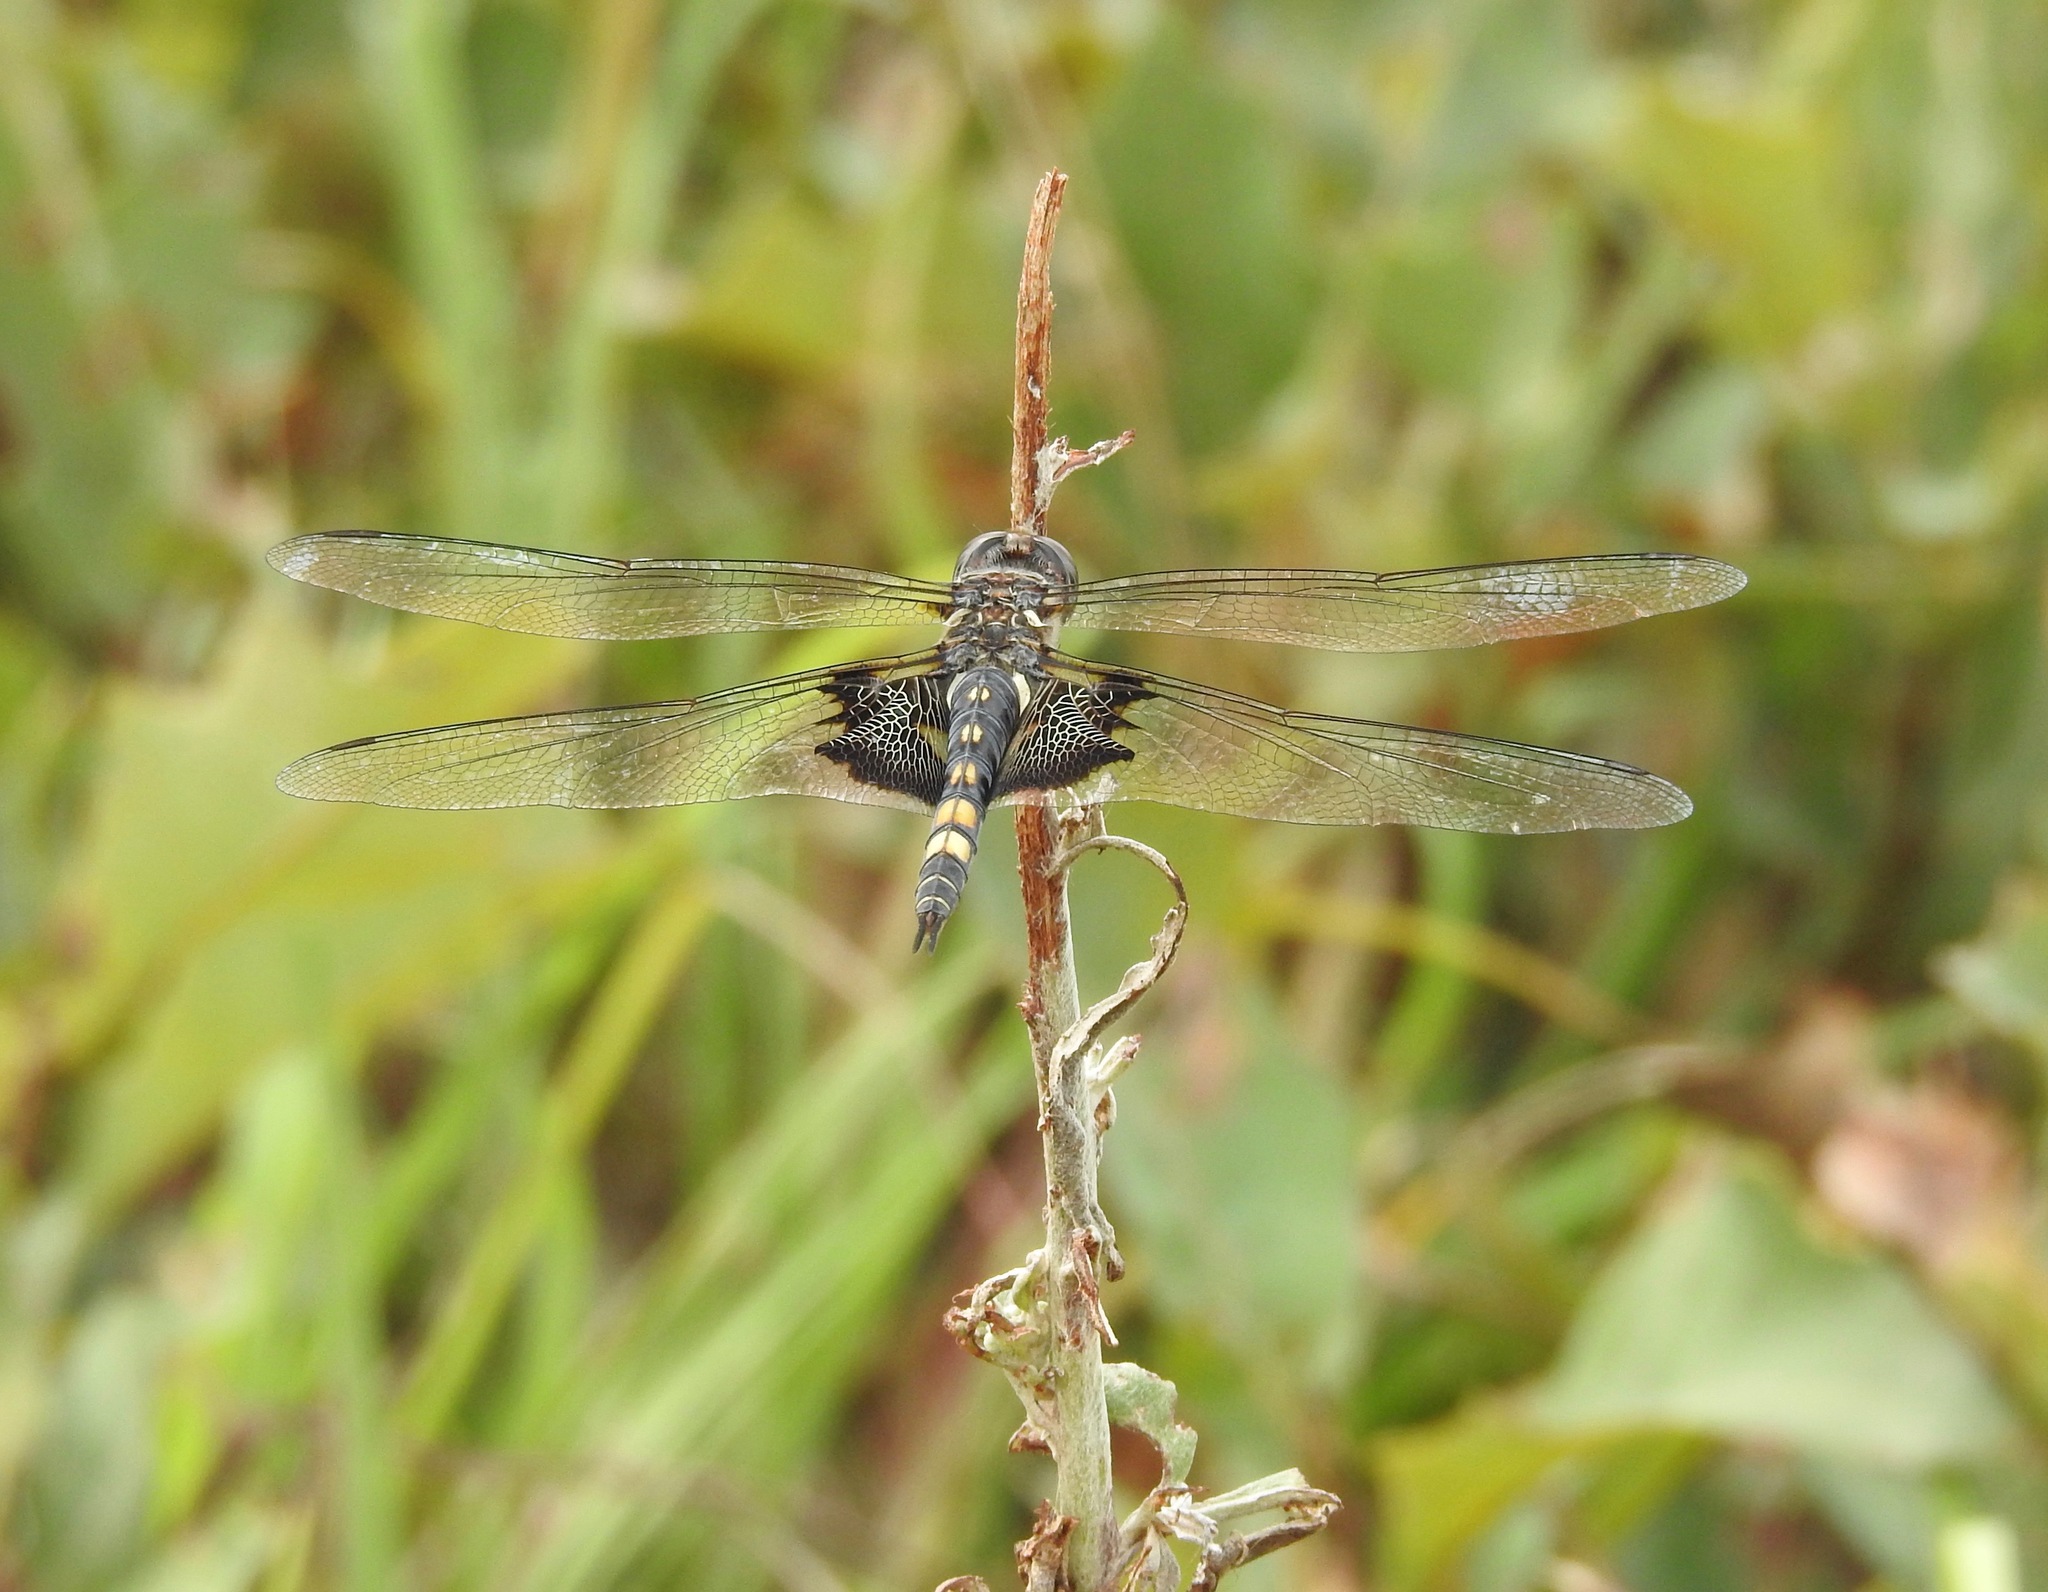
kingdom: Animalia
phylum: Arthropoda
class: Insecta
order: Odonata
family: Libellulidae
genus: Tramea
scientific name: Tramea lacerata
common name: Black saddlebags
